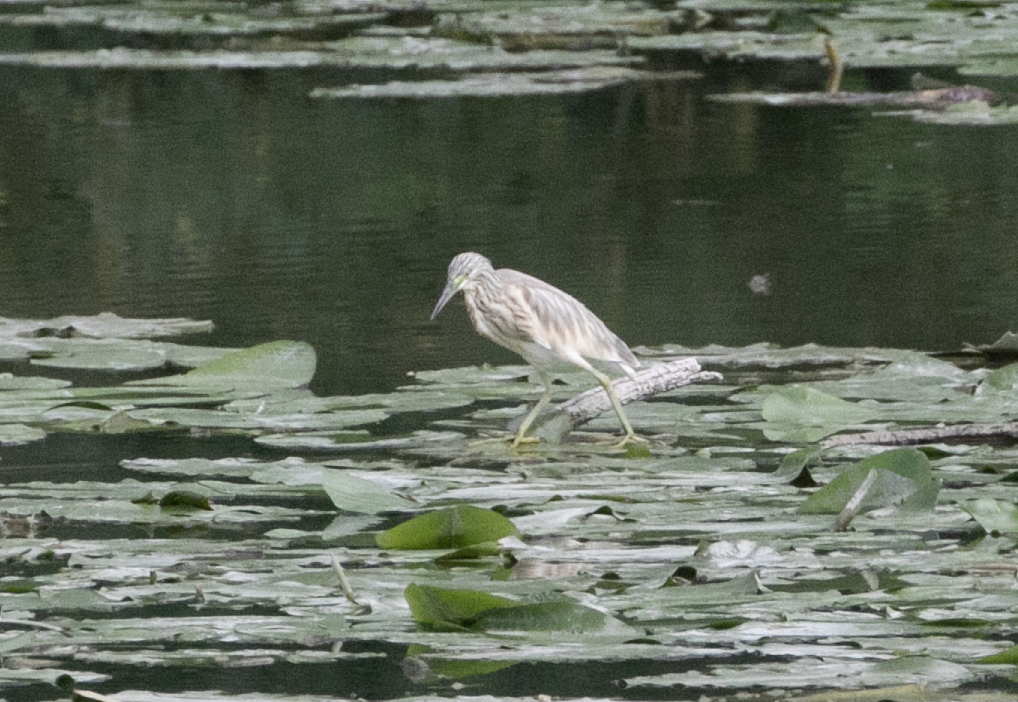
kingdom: Animalia
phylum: Chordata
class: Aves
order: Pelecaniformes
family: Ardeidae
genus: Ardeola
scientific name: Ardeola ralloides
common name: Squacco heron
